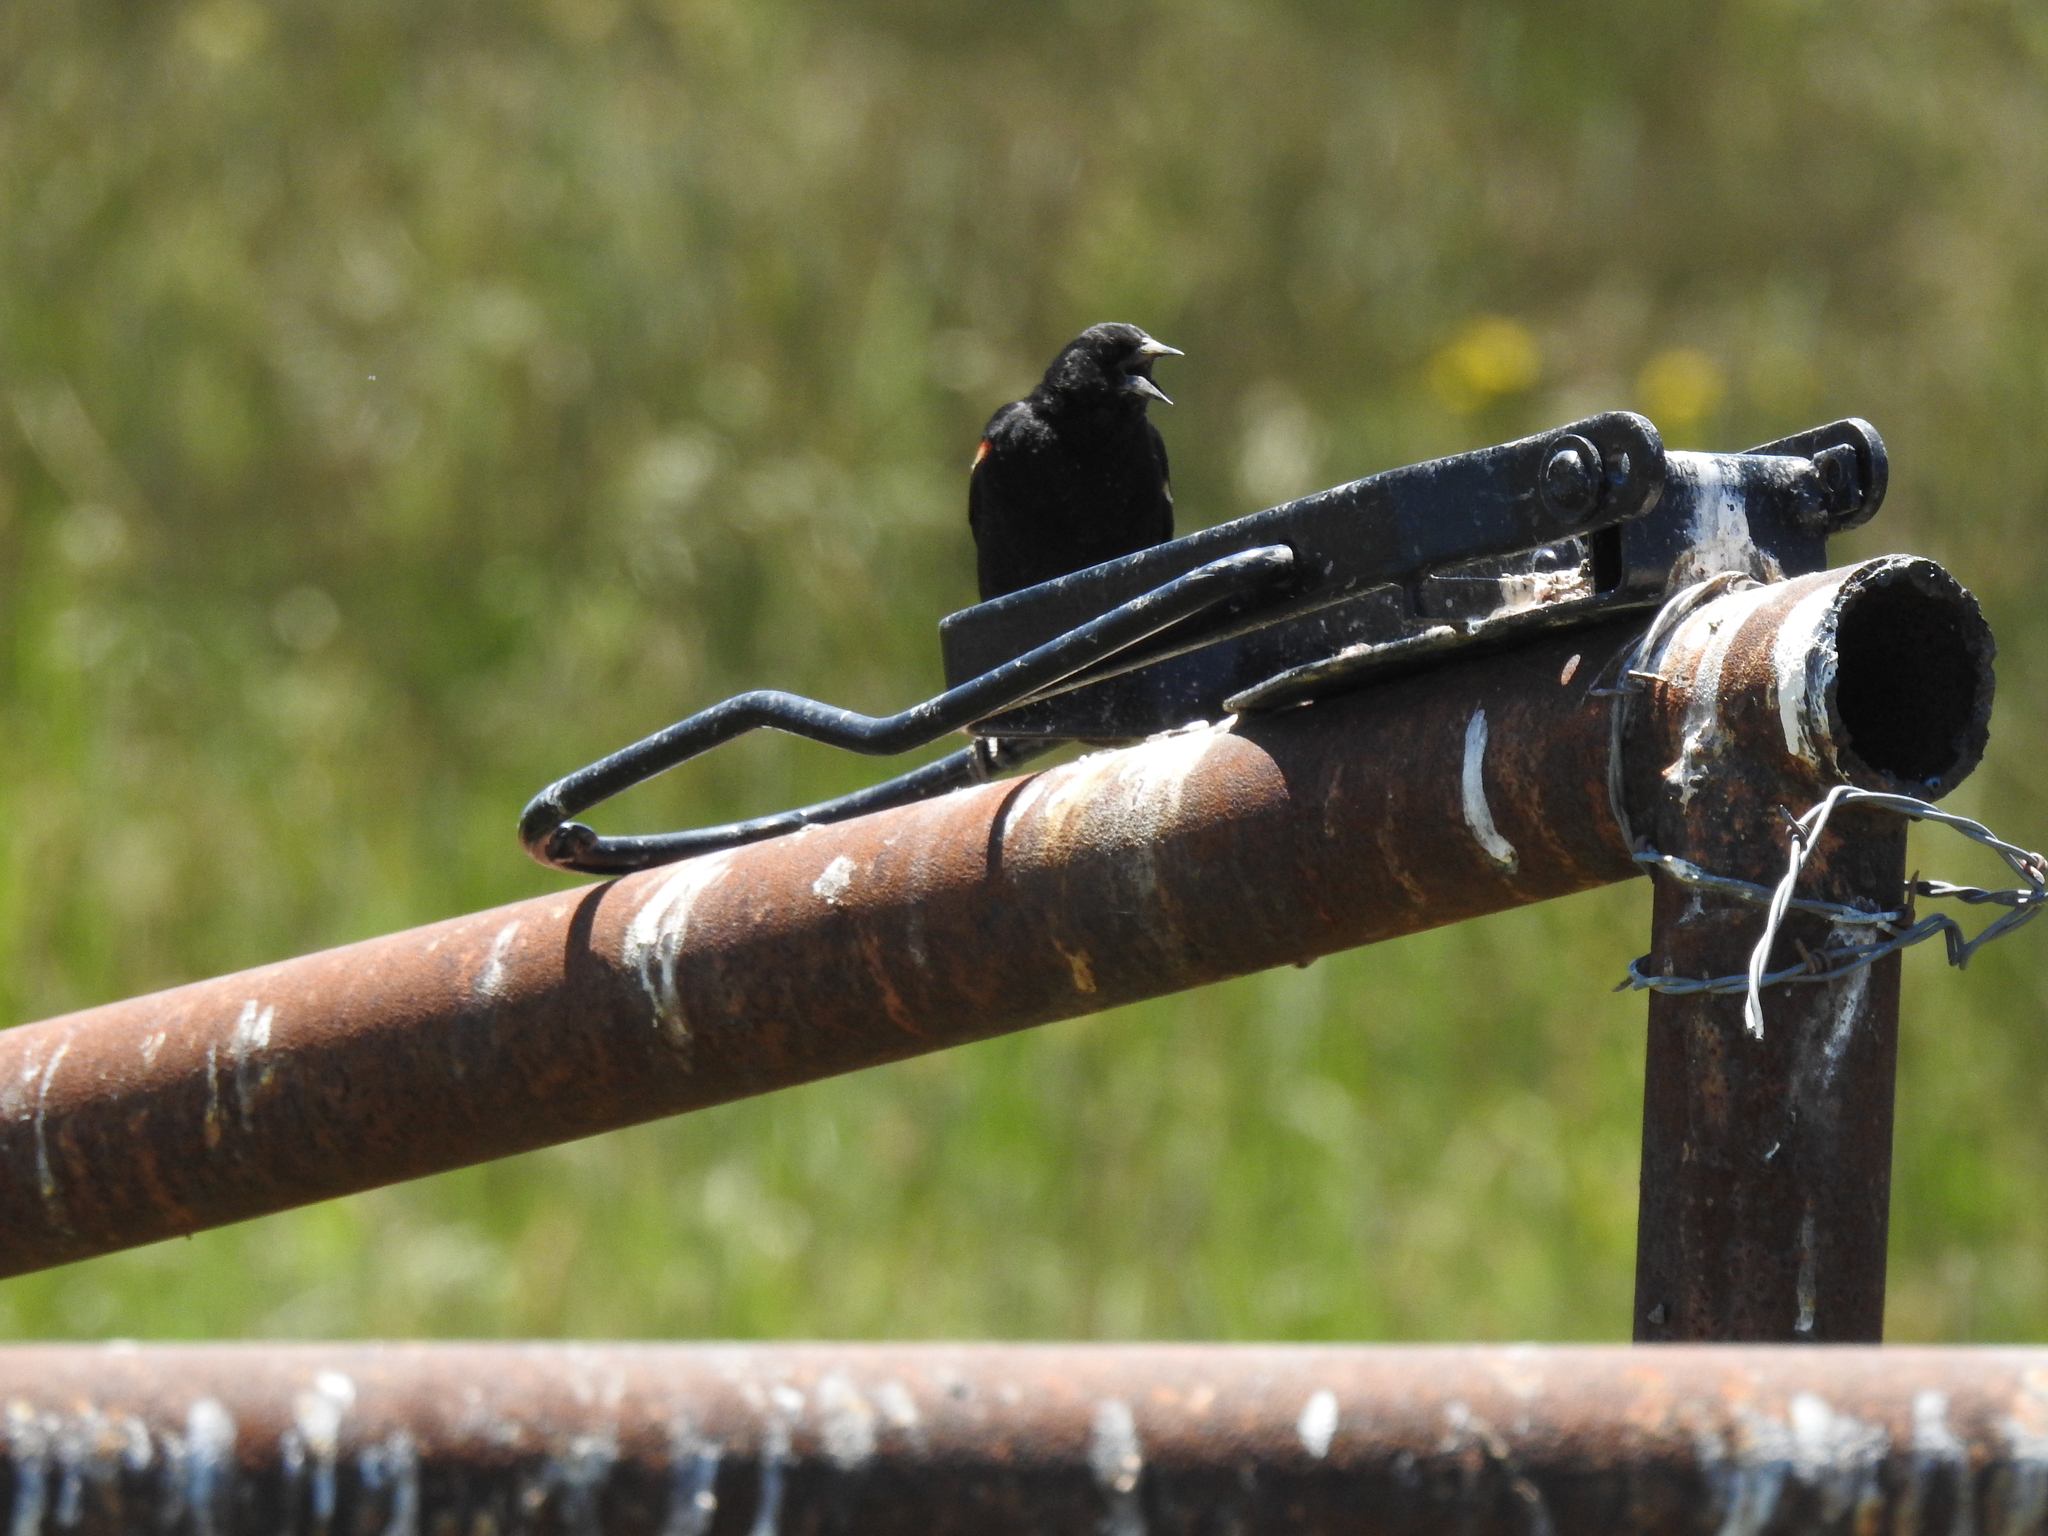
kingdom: Animalia
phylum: Chordata
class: Aves
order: Passeriformes
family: Icteridae
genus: Agelaius
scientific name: Agelaius phoeniceus
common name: Red-winged blackbird
